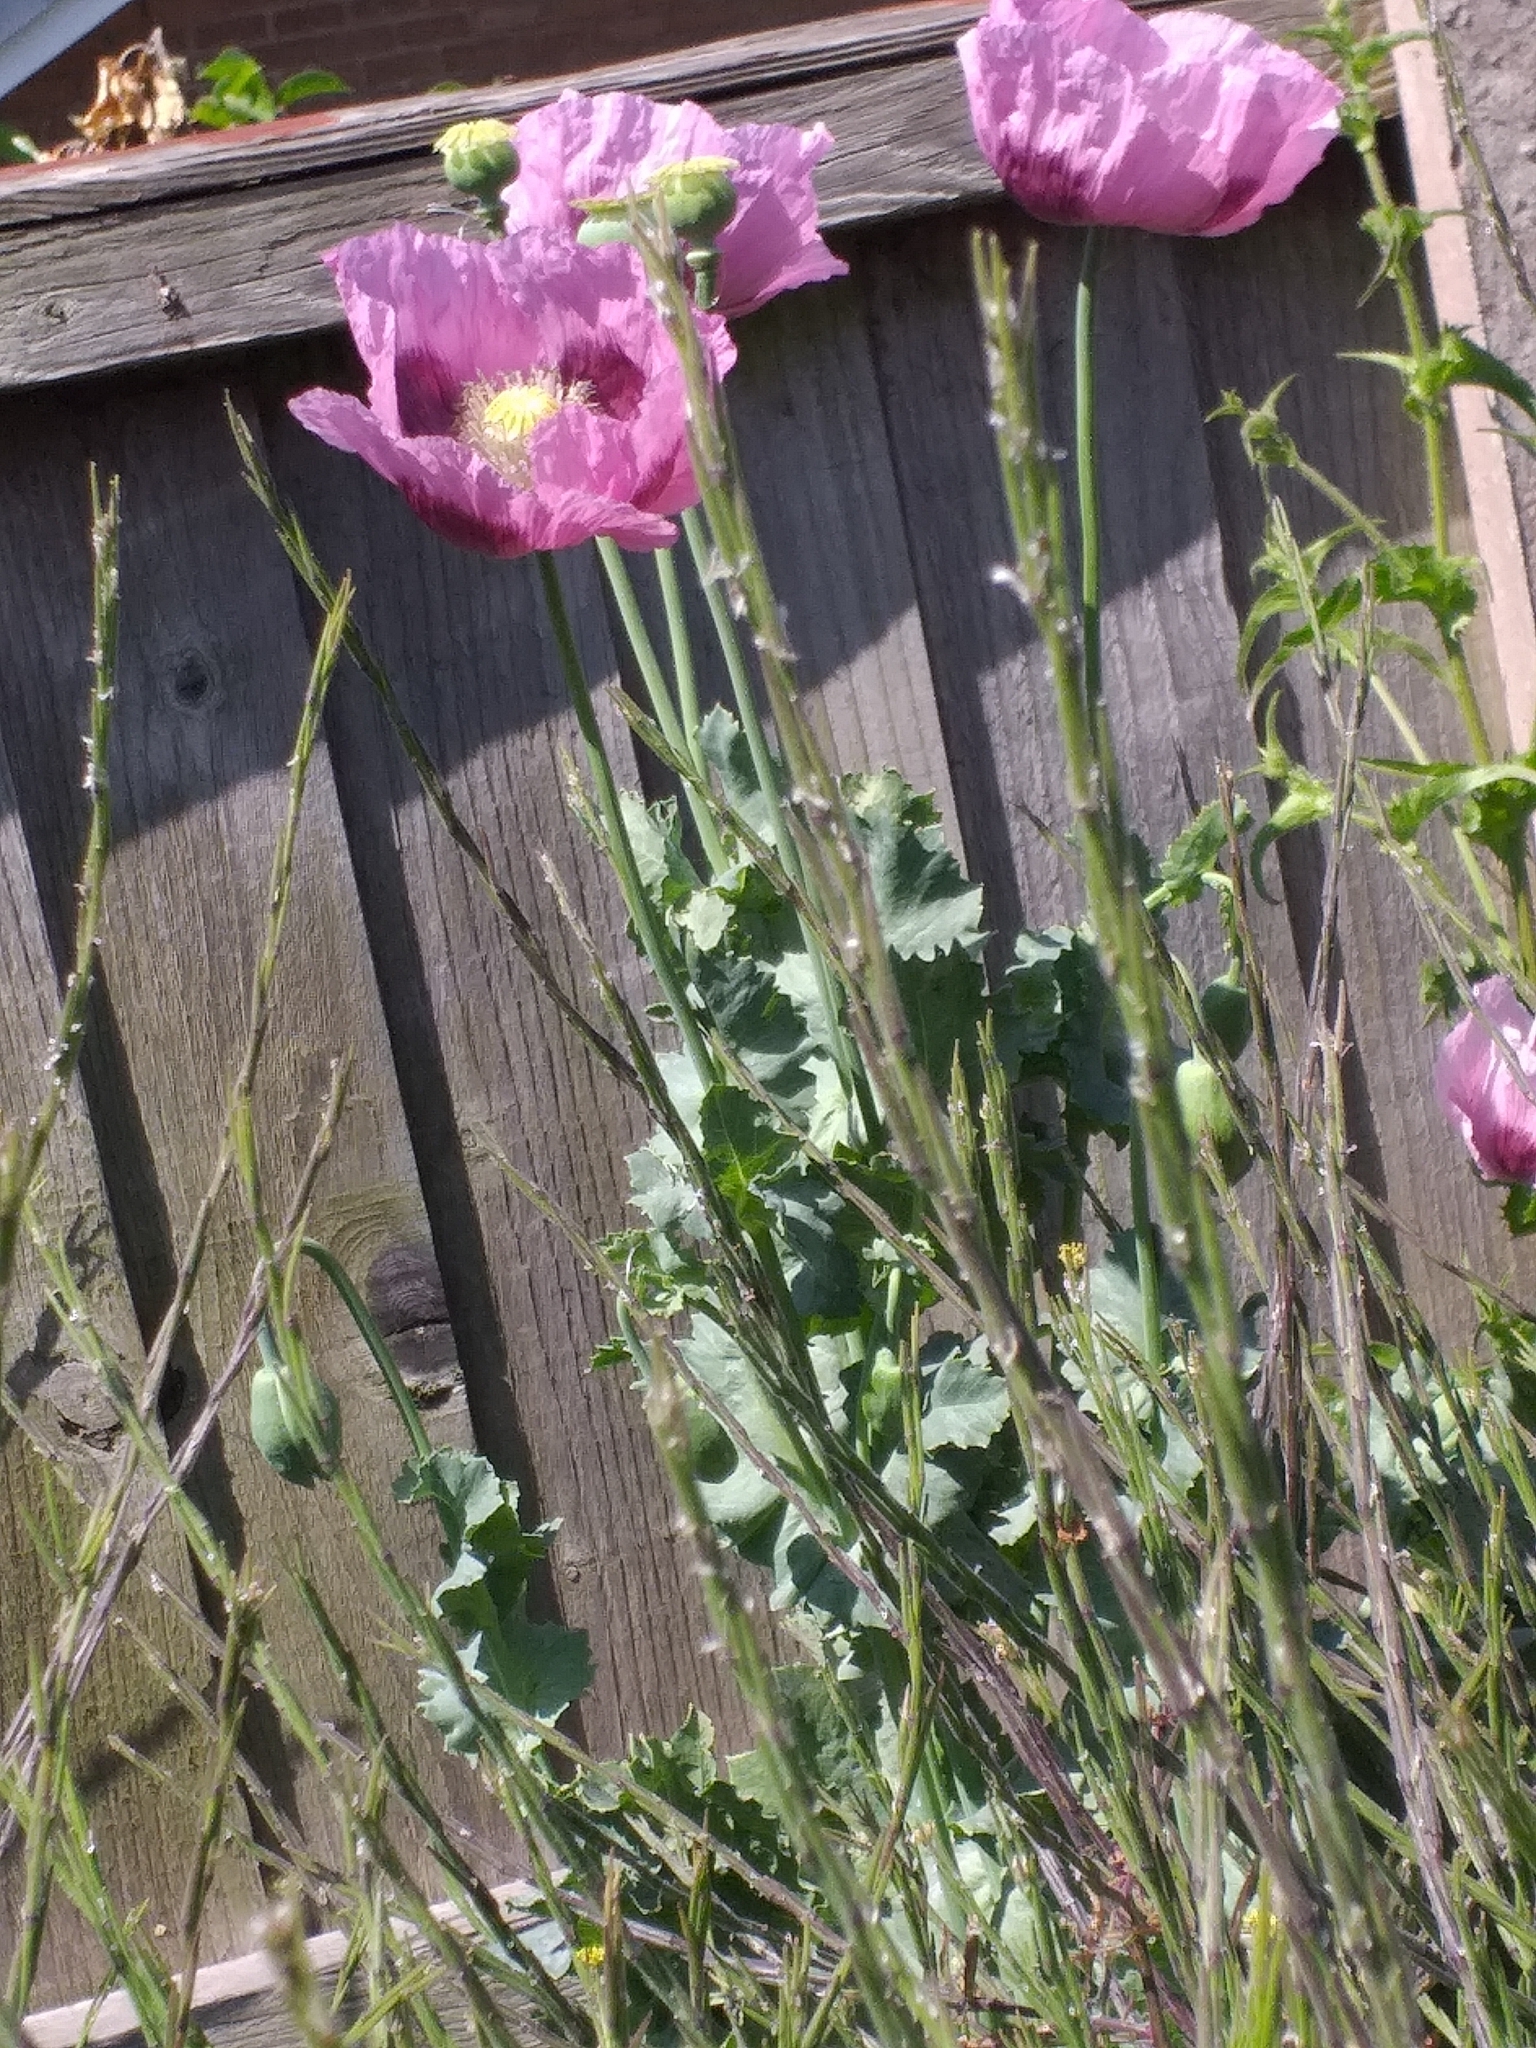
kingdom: Plantae
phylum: Tracheophyta
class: Magnoliopsida
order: Ranunculales
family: Papaveraceae
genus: Papaver
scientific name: Papaver somniferum
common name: Opium poppy
